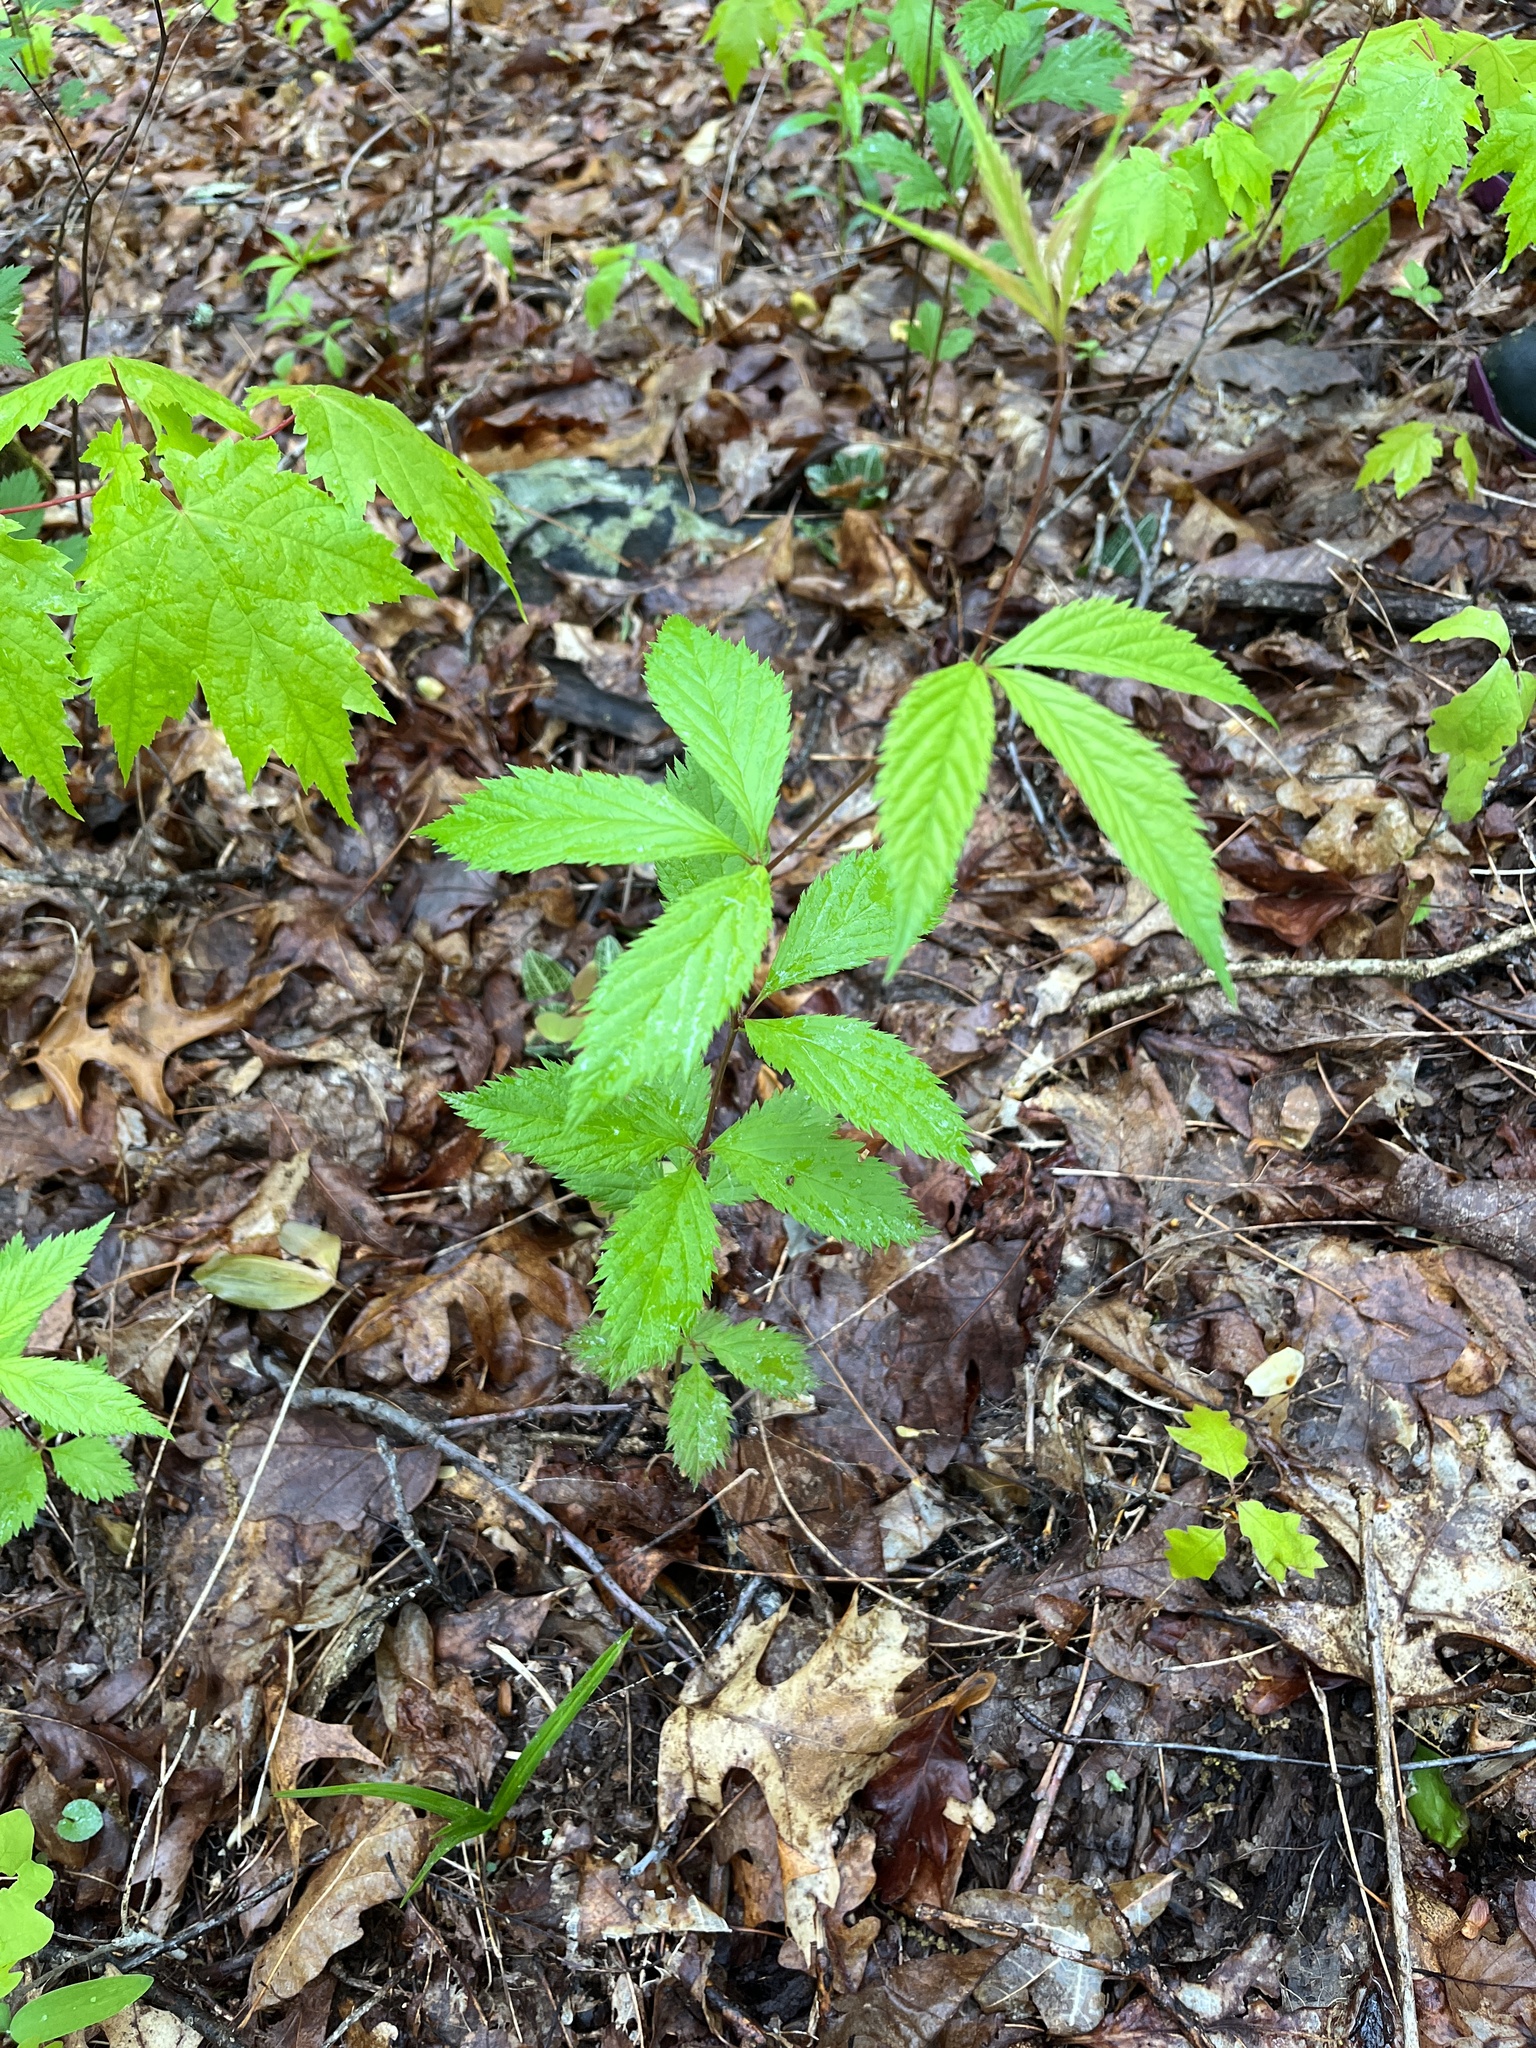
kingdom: Plantae
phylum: Tracheophyta
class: Magnoliopsida
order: Rosales
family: Rosaceae
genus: Gillenia
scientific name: Gillenia trifoliata
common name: Bowman's-root
